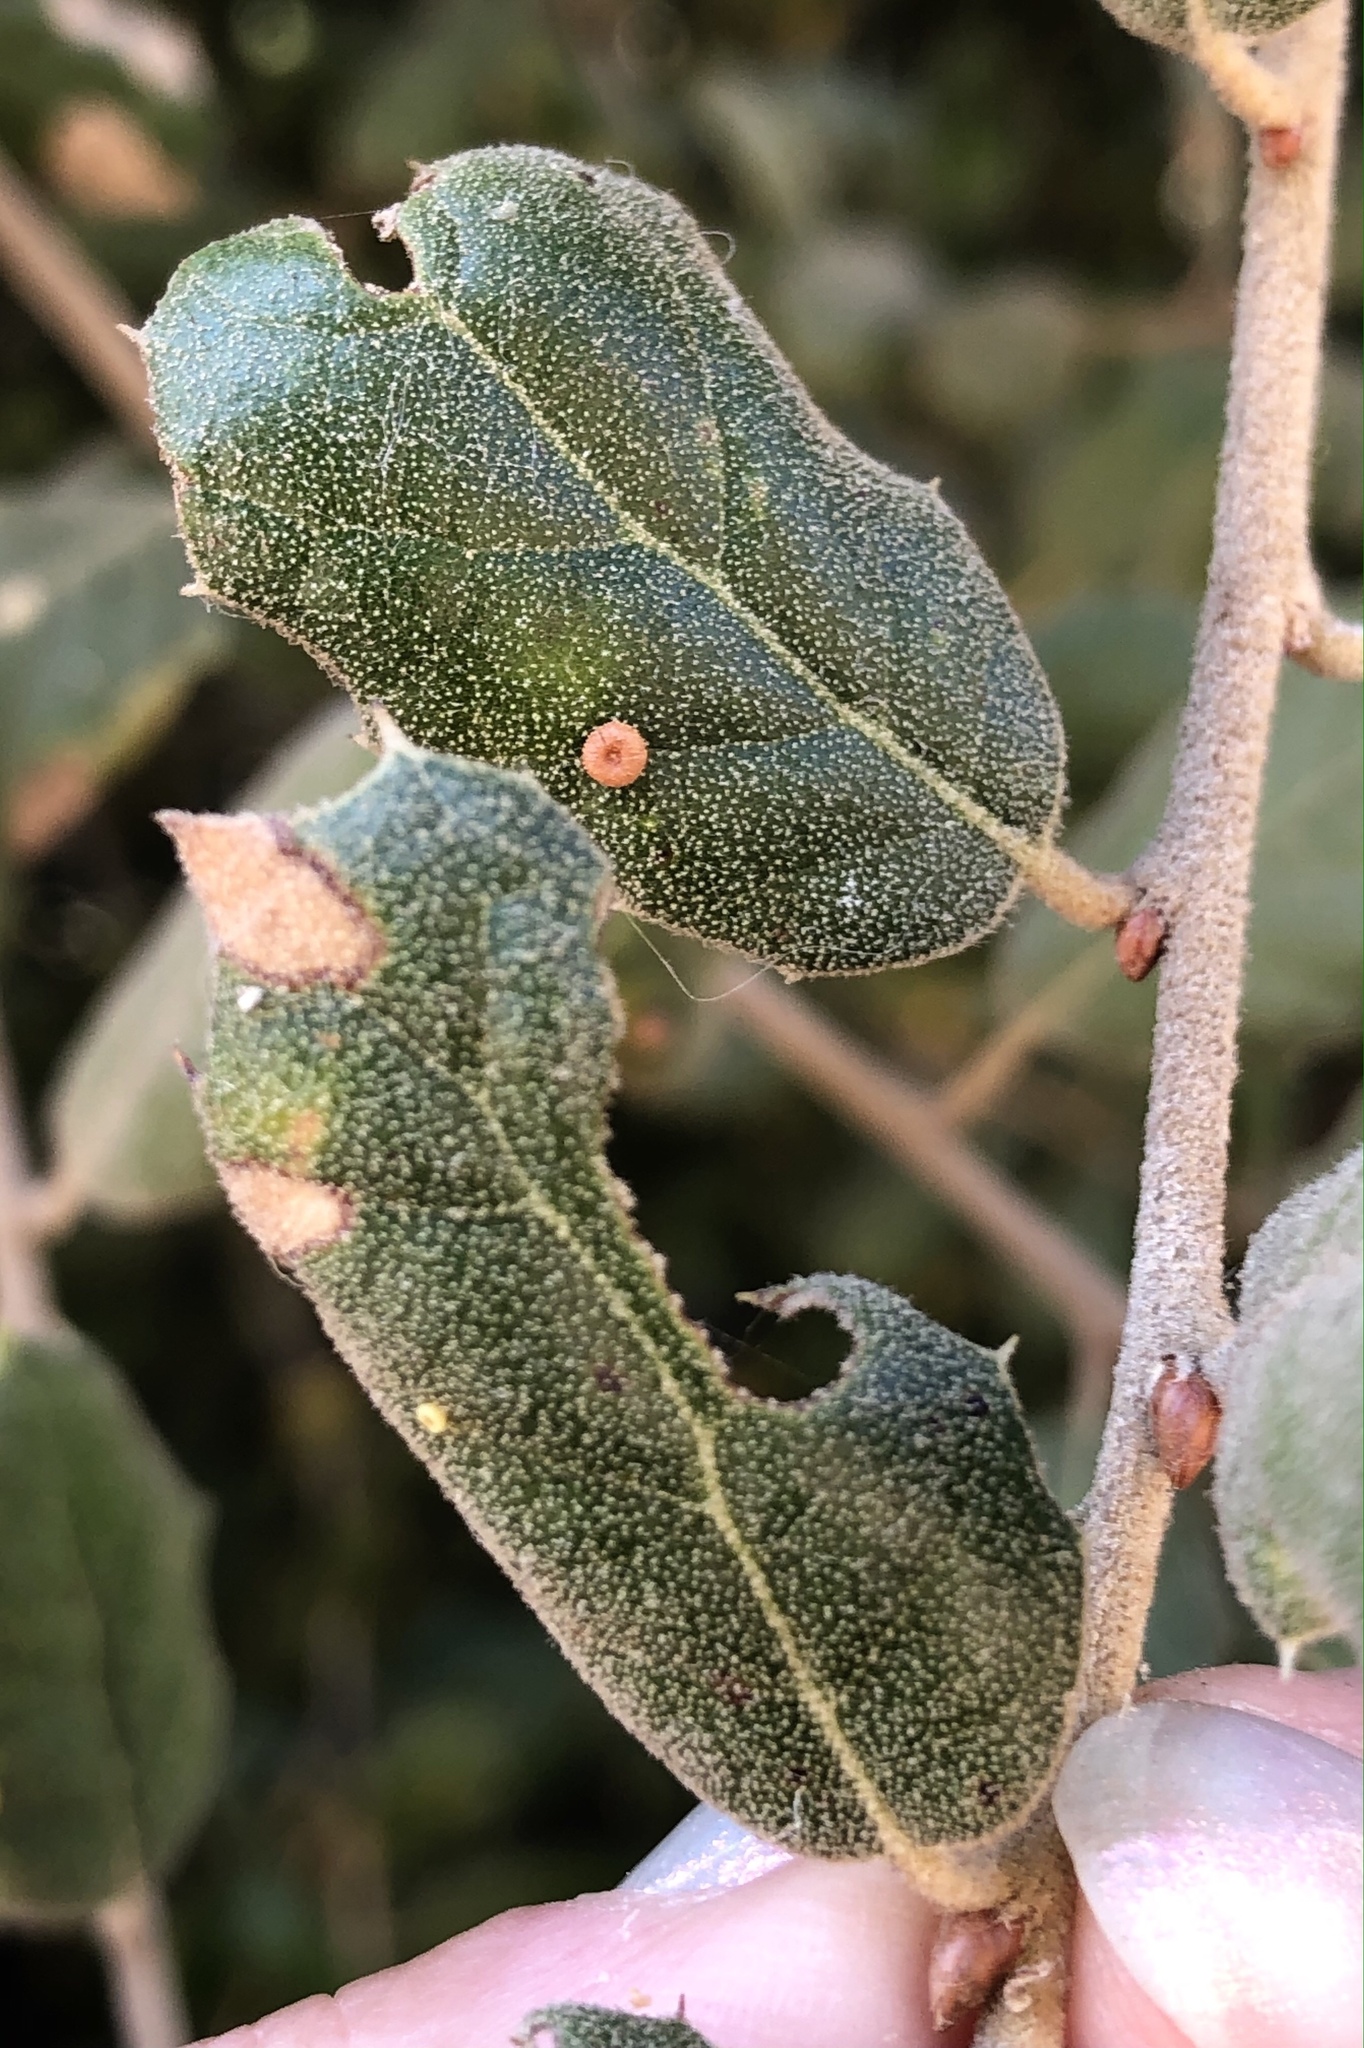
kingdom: Animalia
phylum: Arthropoda
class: Insecta
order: Hymenoptera
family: Cynipidae
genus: Dryocosmus
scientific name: Dryocosmus
